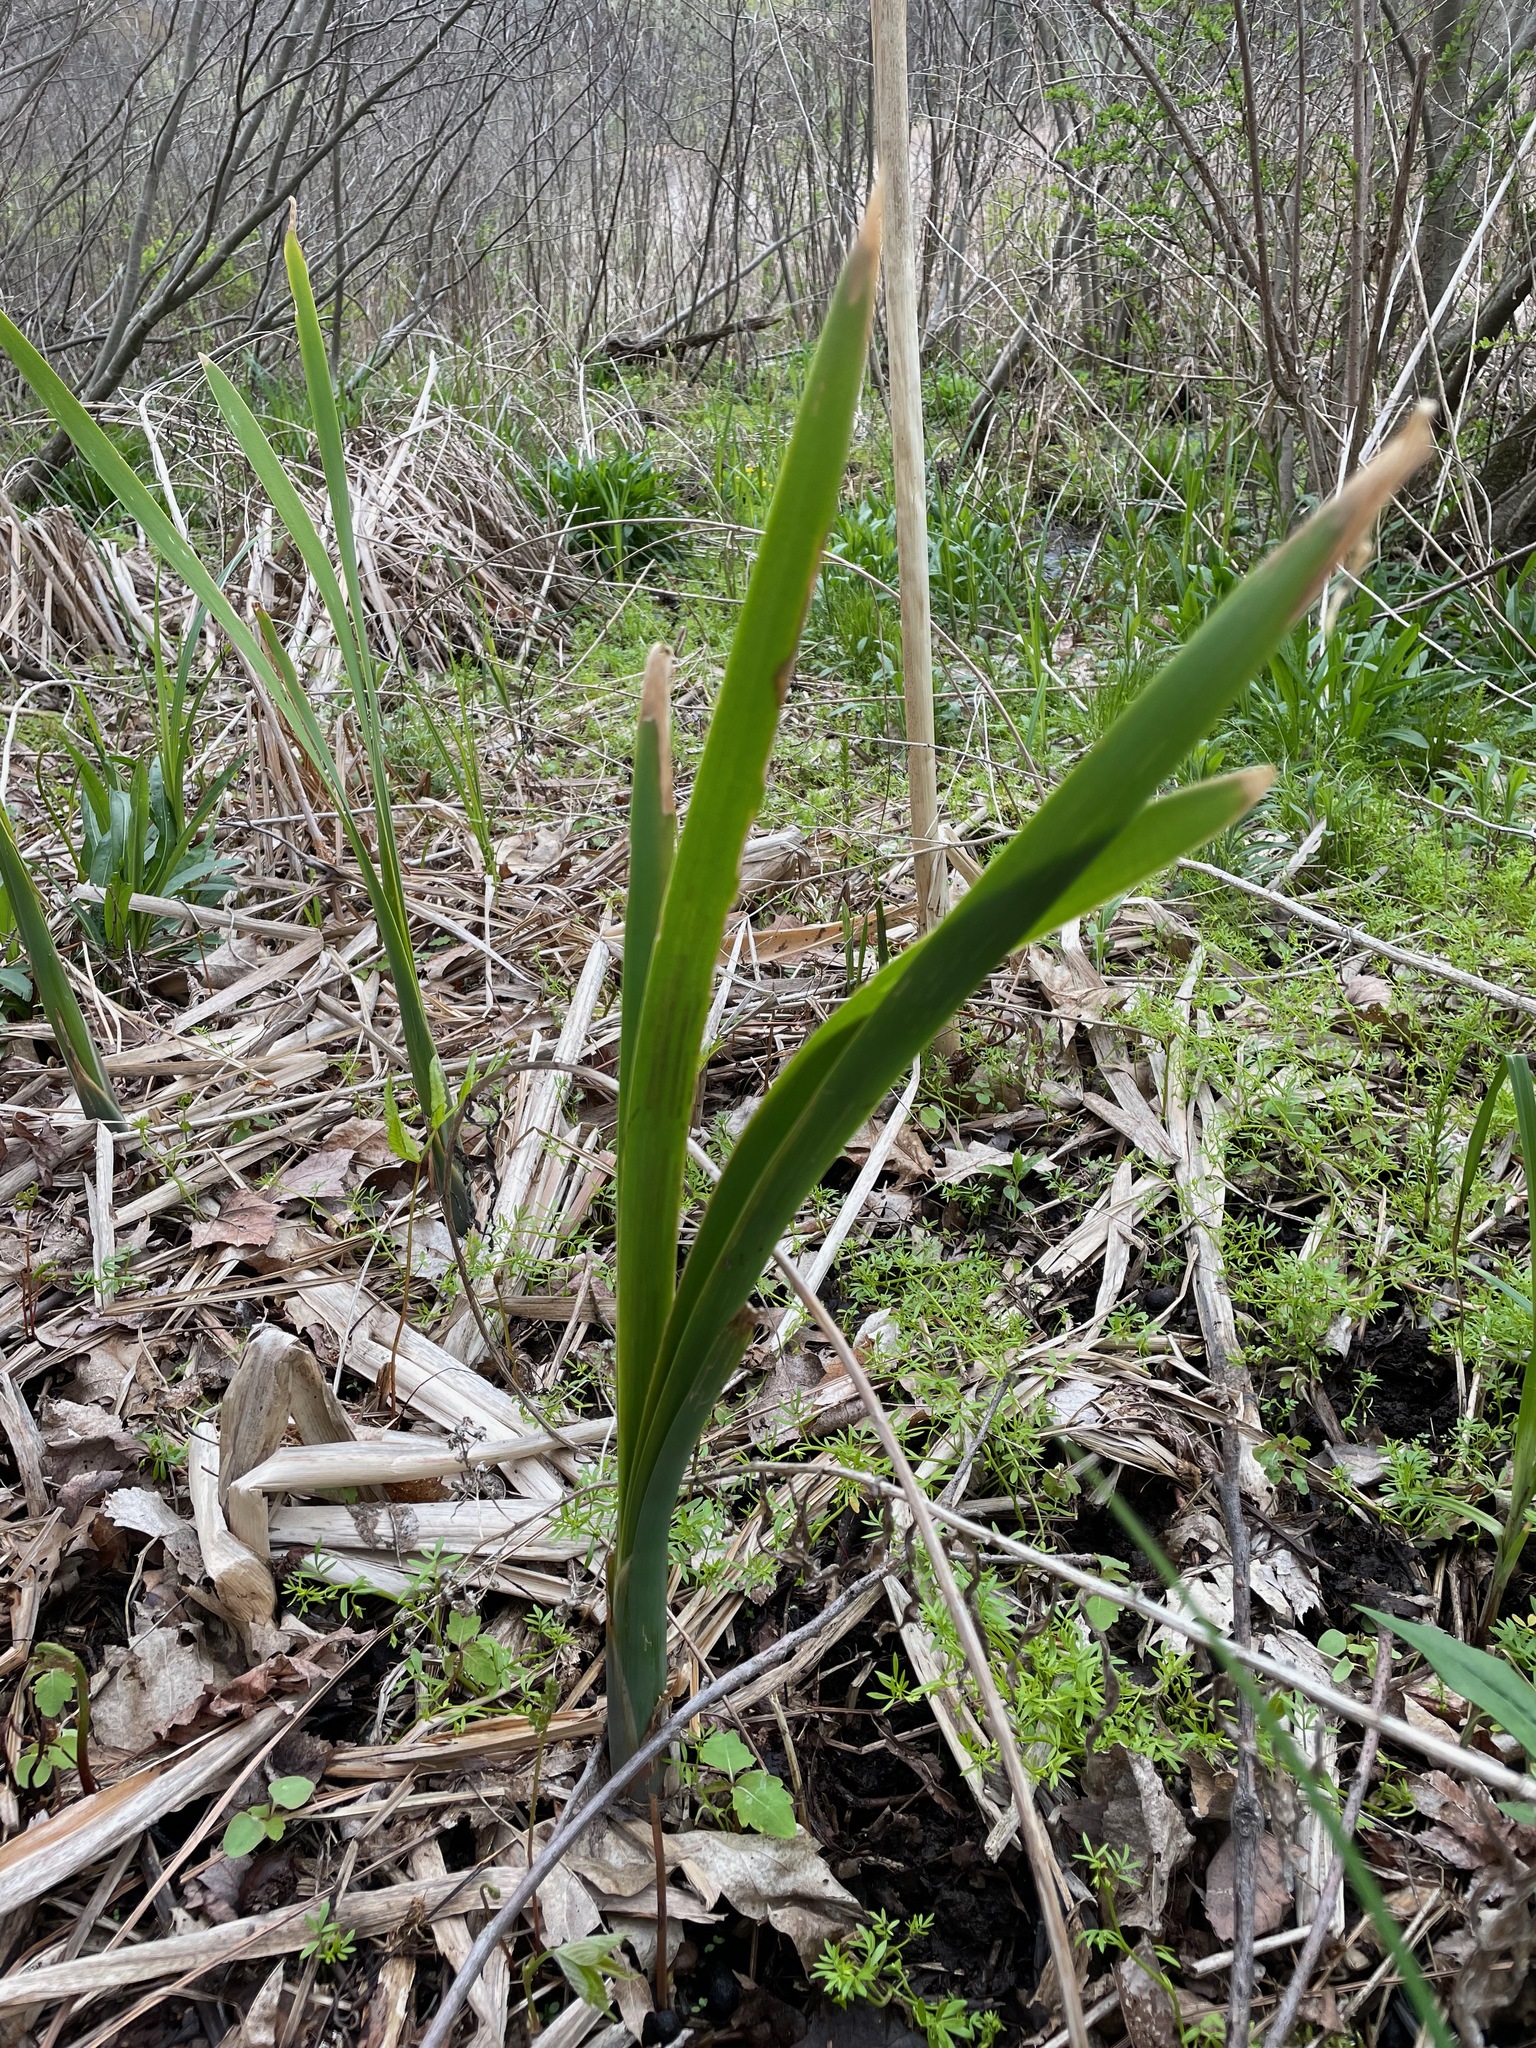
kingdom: Plantae
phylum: Tracheophyta
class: Liliopsida
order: Poales
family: Typhaceae
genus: Typha
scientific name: Typha
